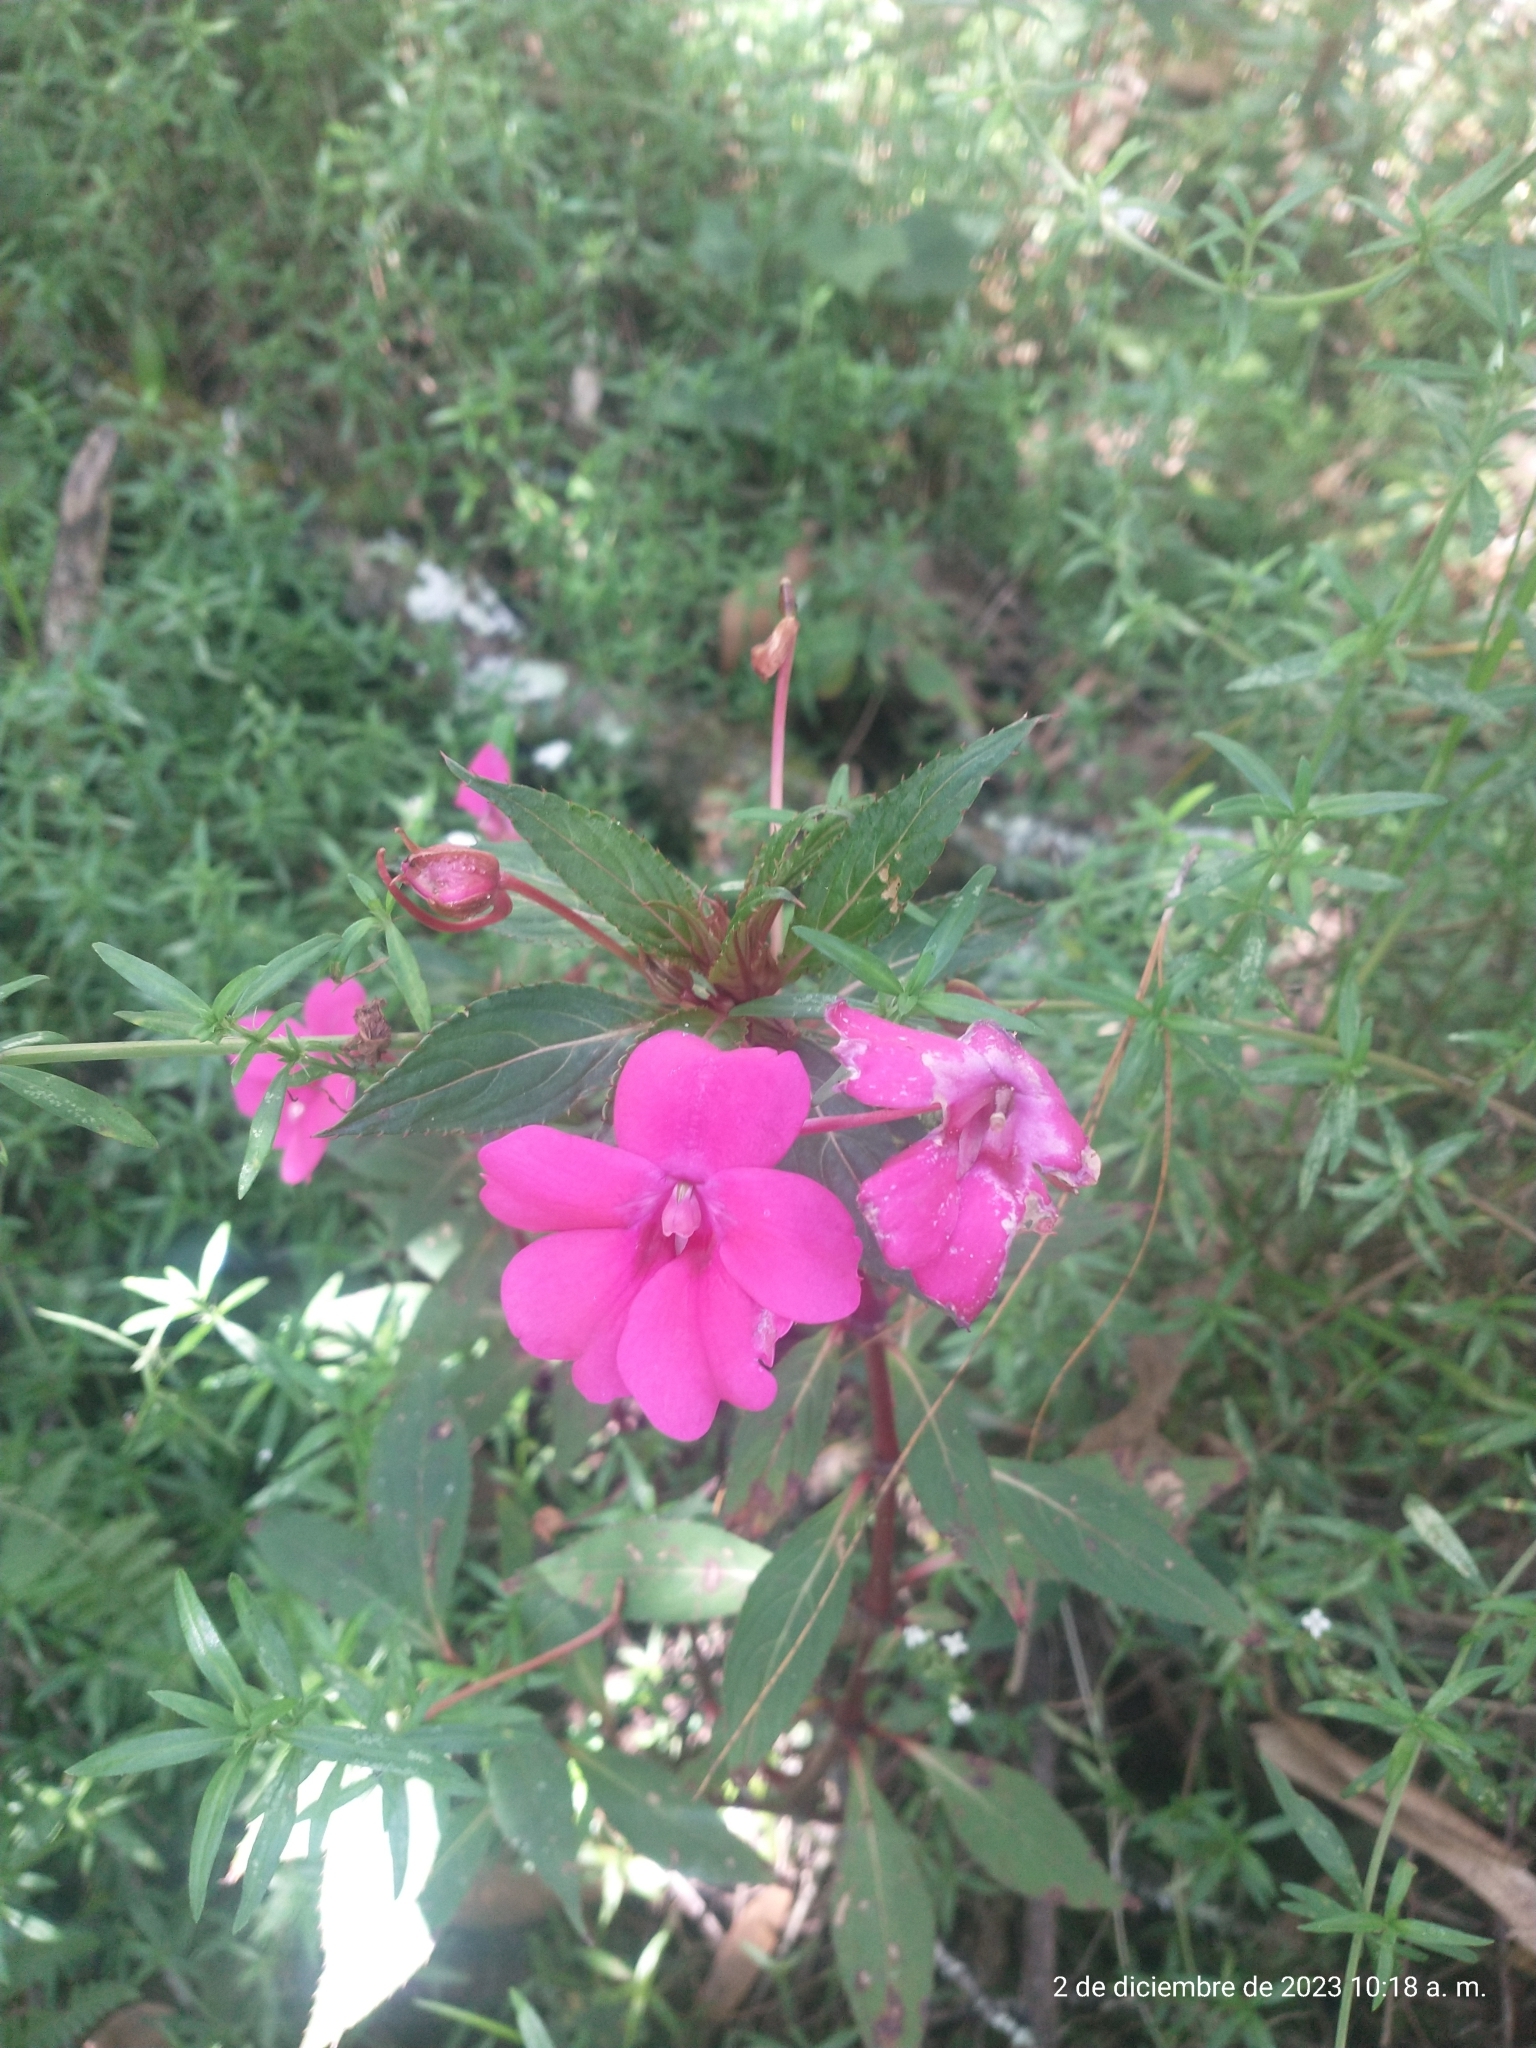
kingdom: Plantae
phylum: Tracheophyta
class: Magnoliopsida
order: Ericales
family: Balsaminaceae
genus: Impatiens
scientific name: Impatiens hawkeri
